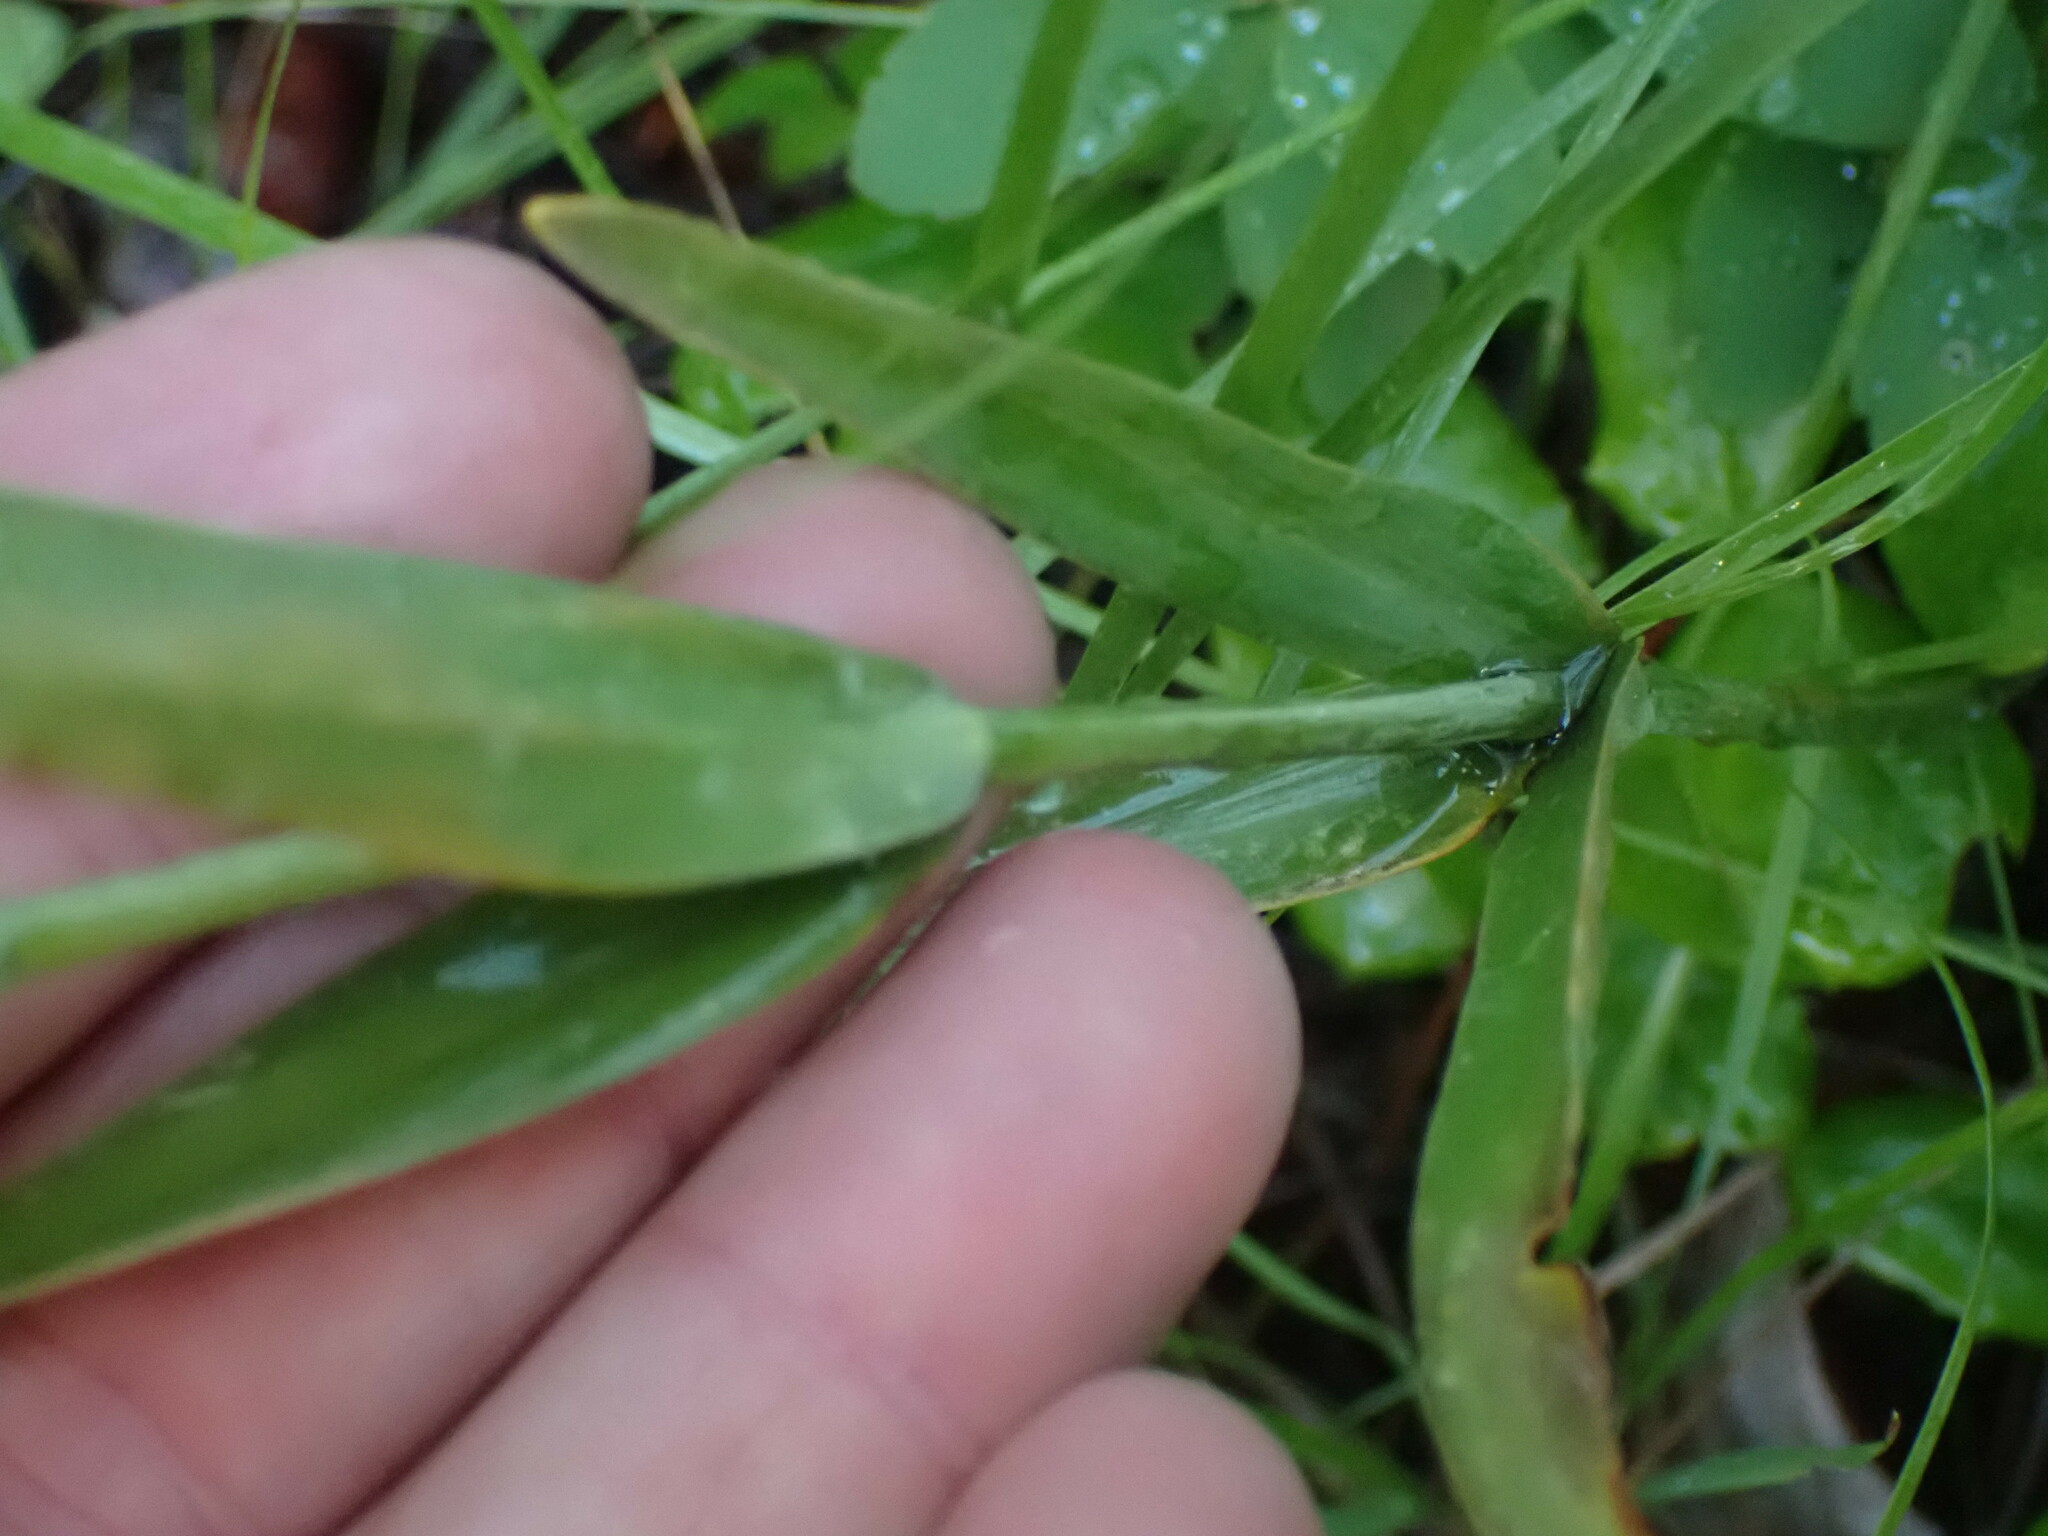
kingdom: Plantae
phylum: Tracheophyta
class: Liliopsida
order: Liliales
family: Liliaceae
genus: Fritillaria
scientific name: Fritillaria affinis
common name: Ojai fritillary
